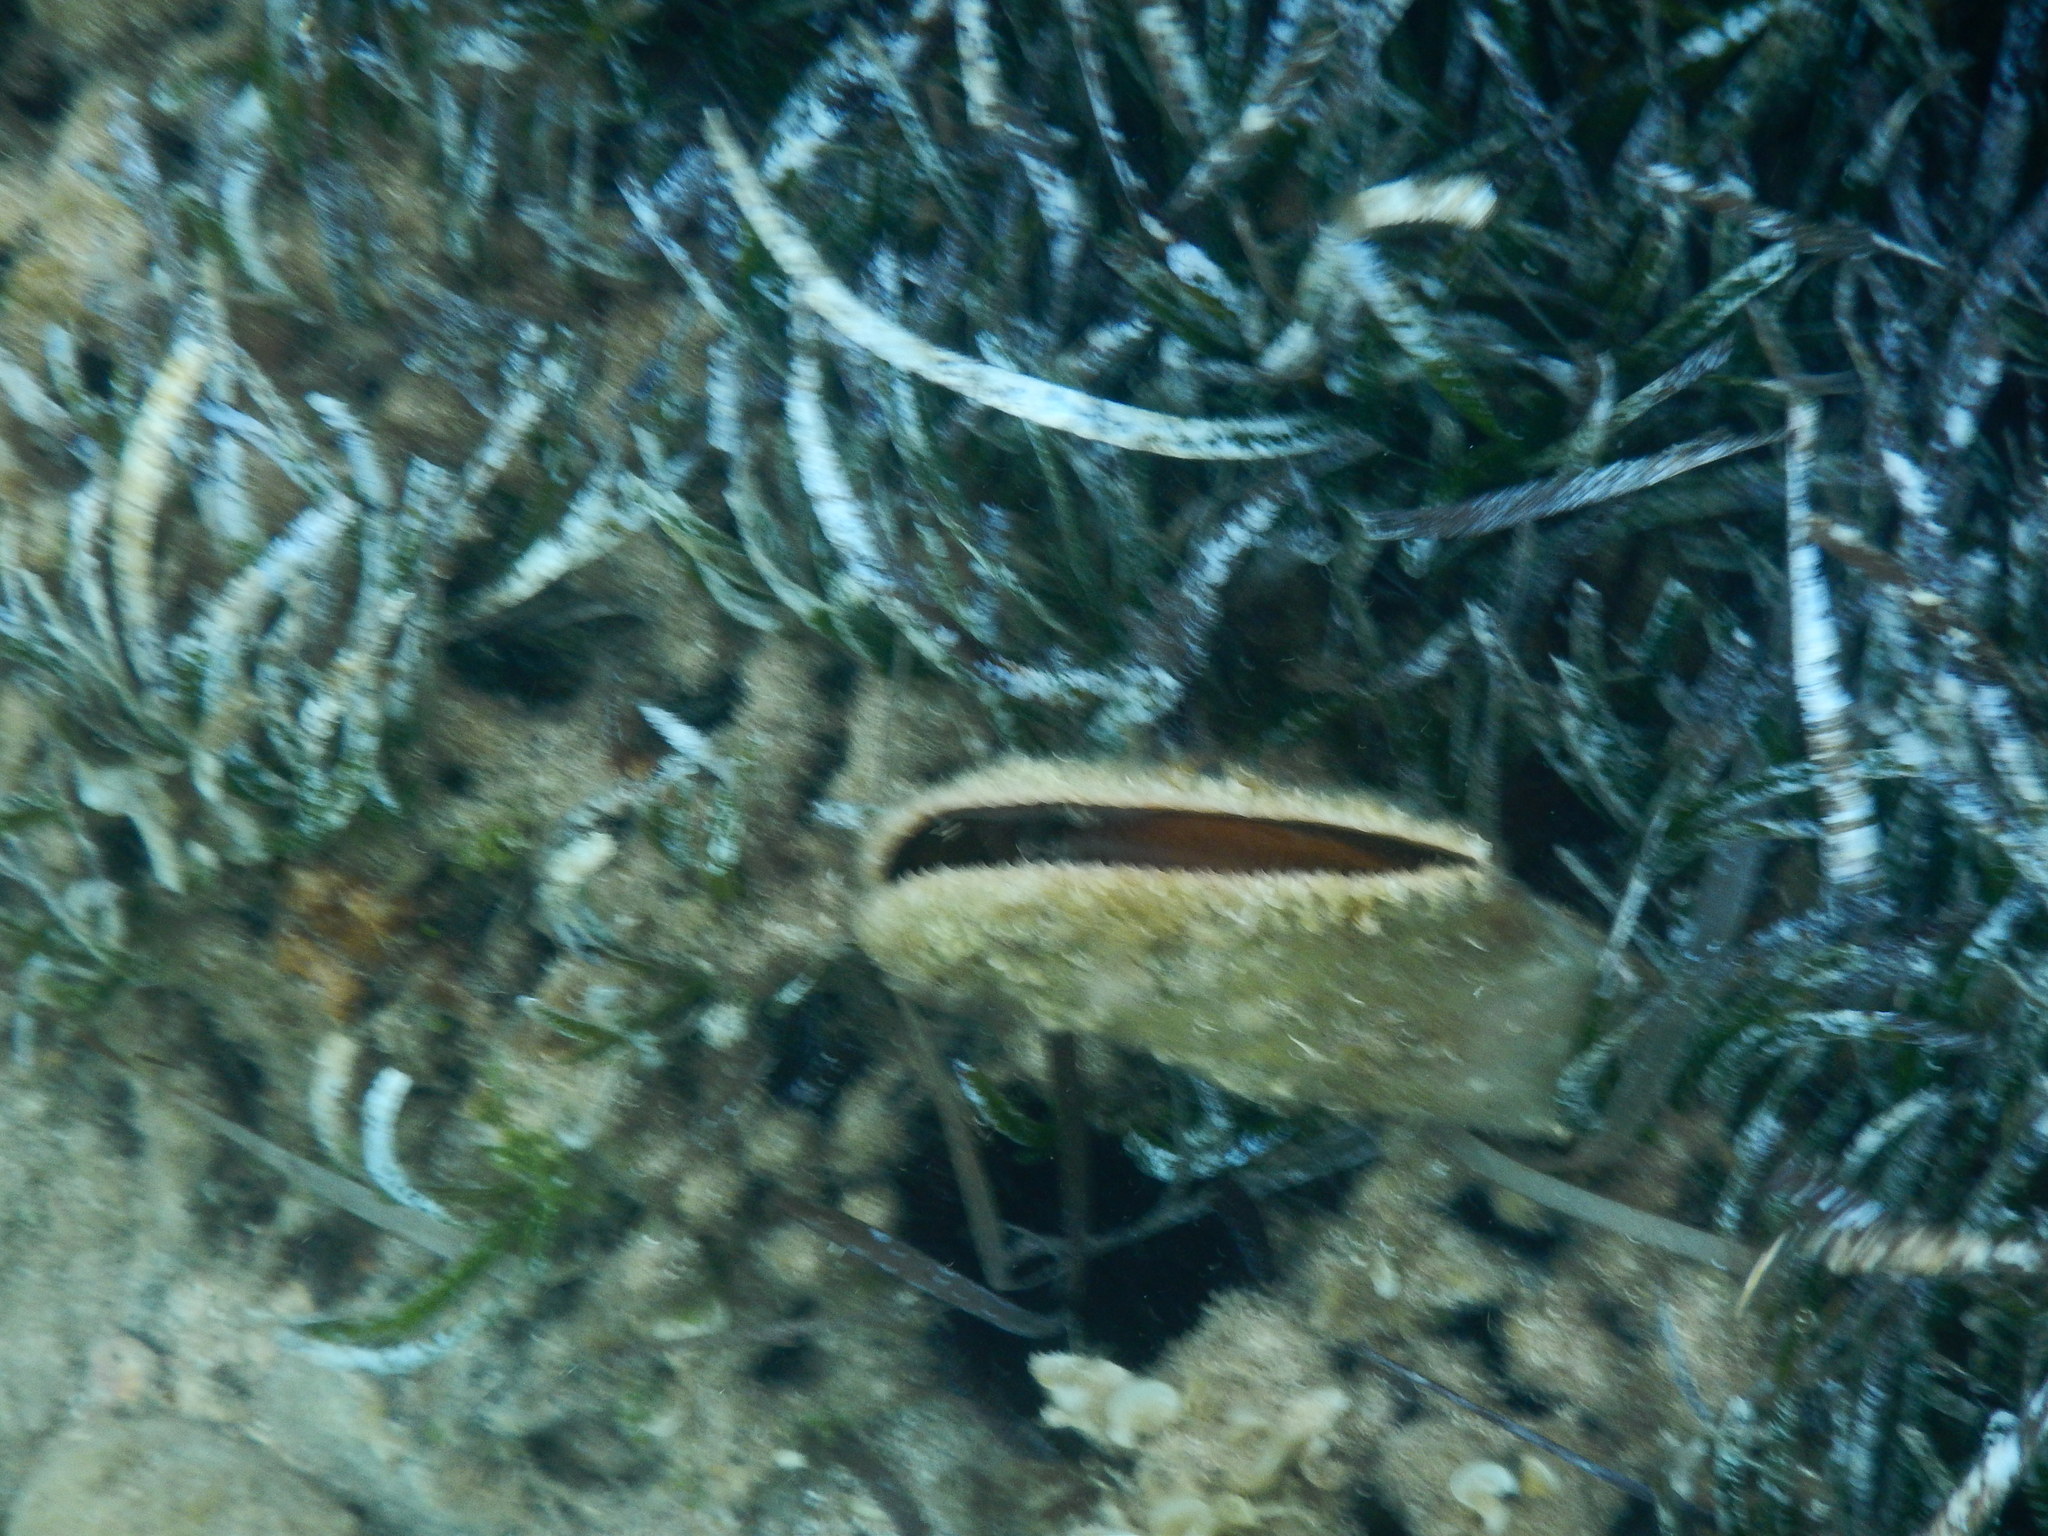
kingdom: Animalia
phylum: Mollusca
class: Bivalvia
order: Ostreida
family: Pinnidae
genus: Pinna
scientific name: Pinna nobilis
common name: Fan mussel
